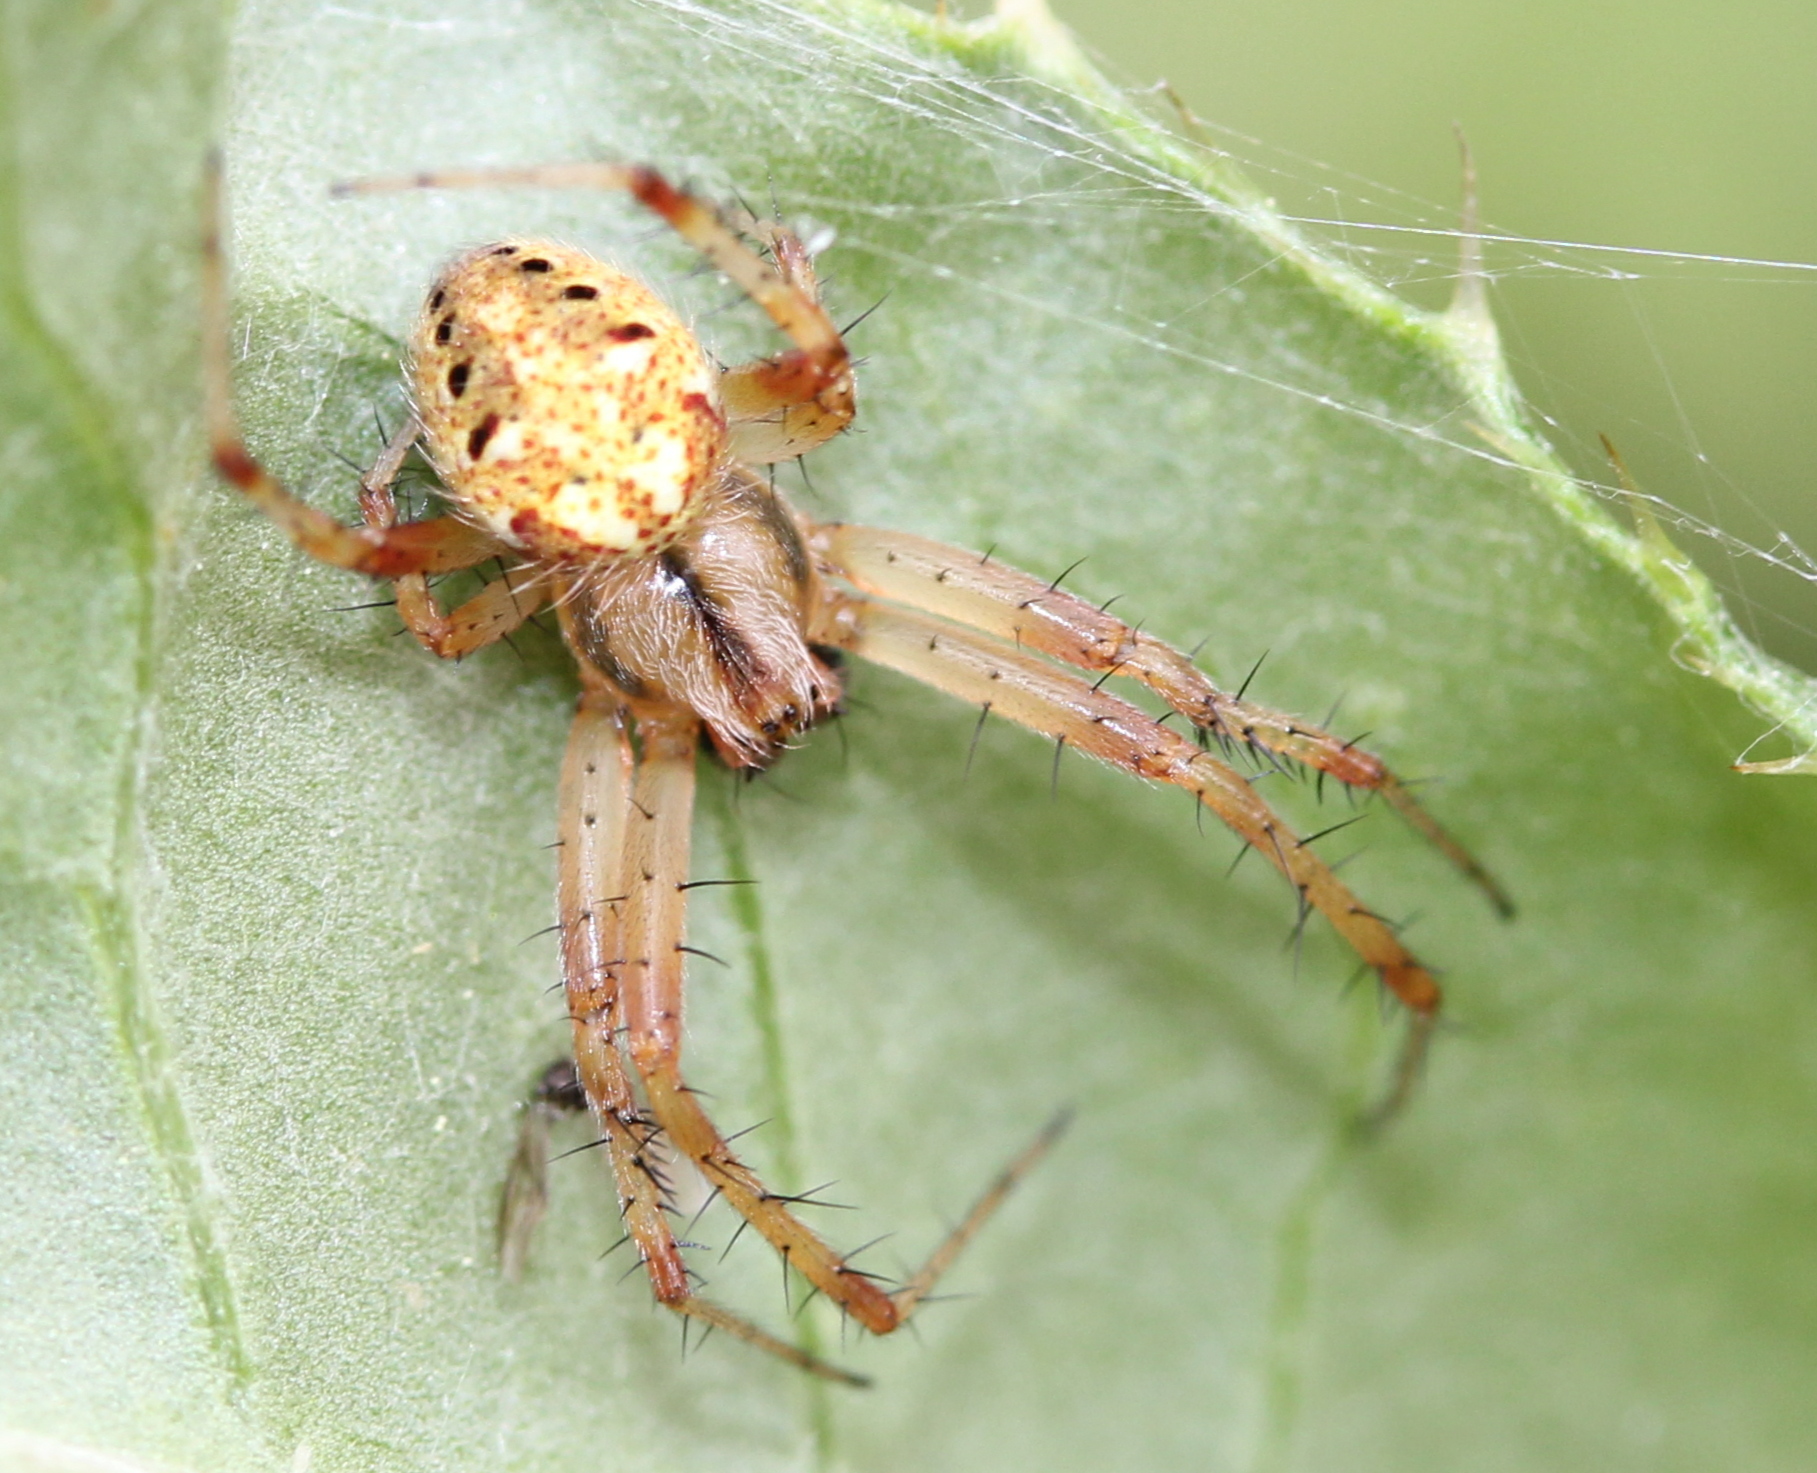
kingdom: Animalia
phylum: Arthropoda
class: Arachnida
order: Araneae
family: Araneidae
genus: Neoscona
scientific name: Neoscona arabesca
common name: Orb weavers
